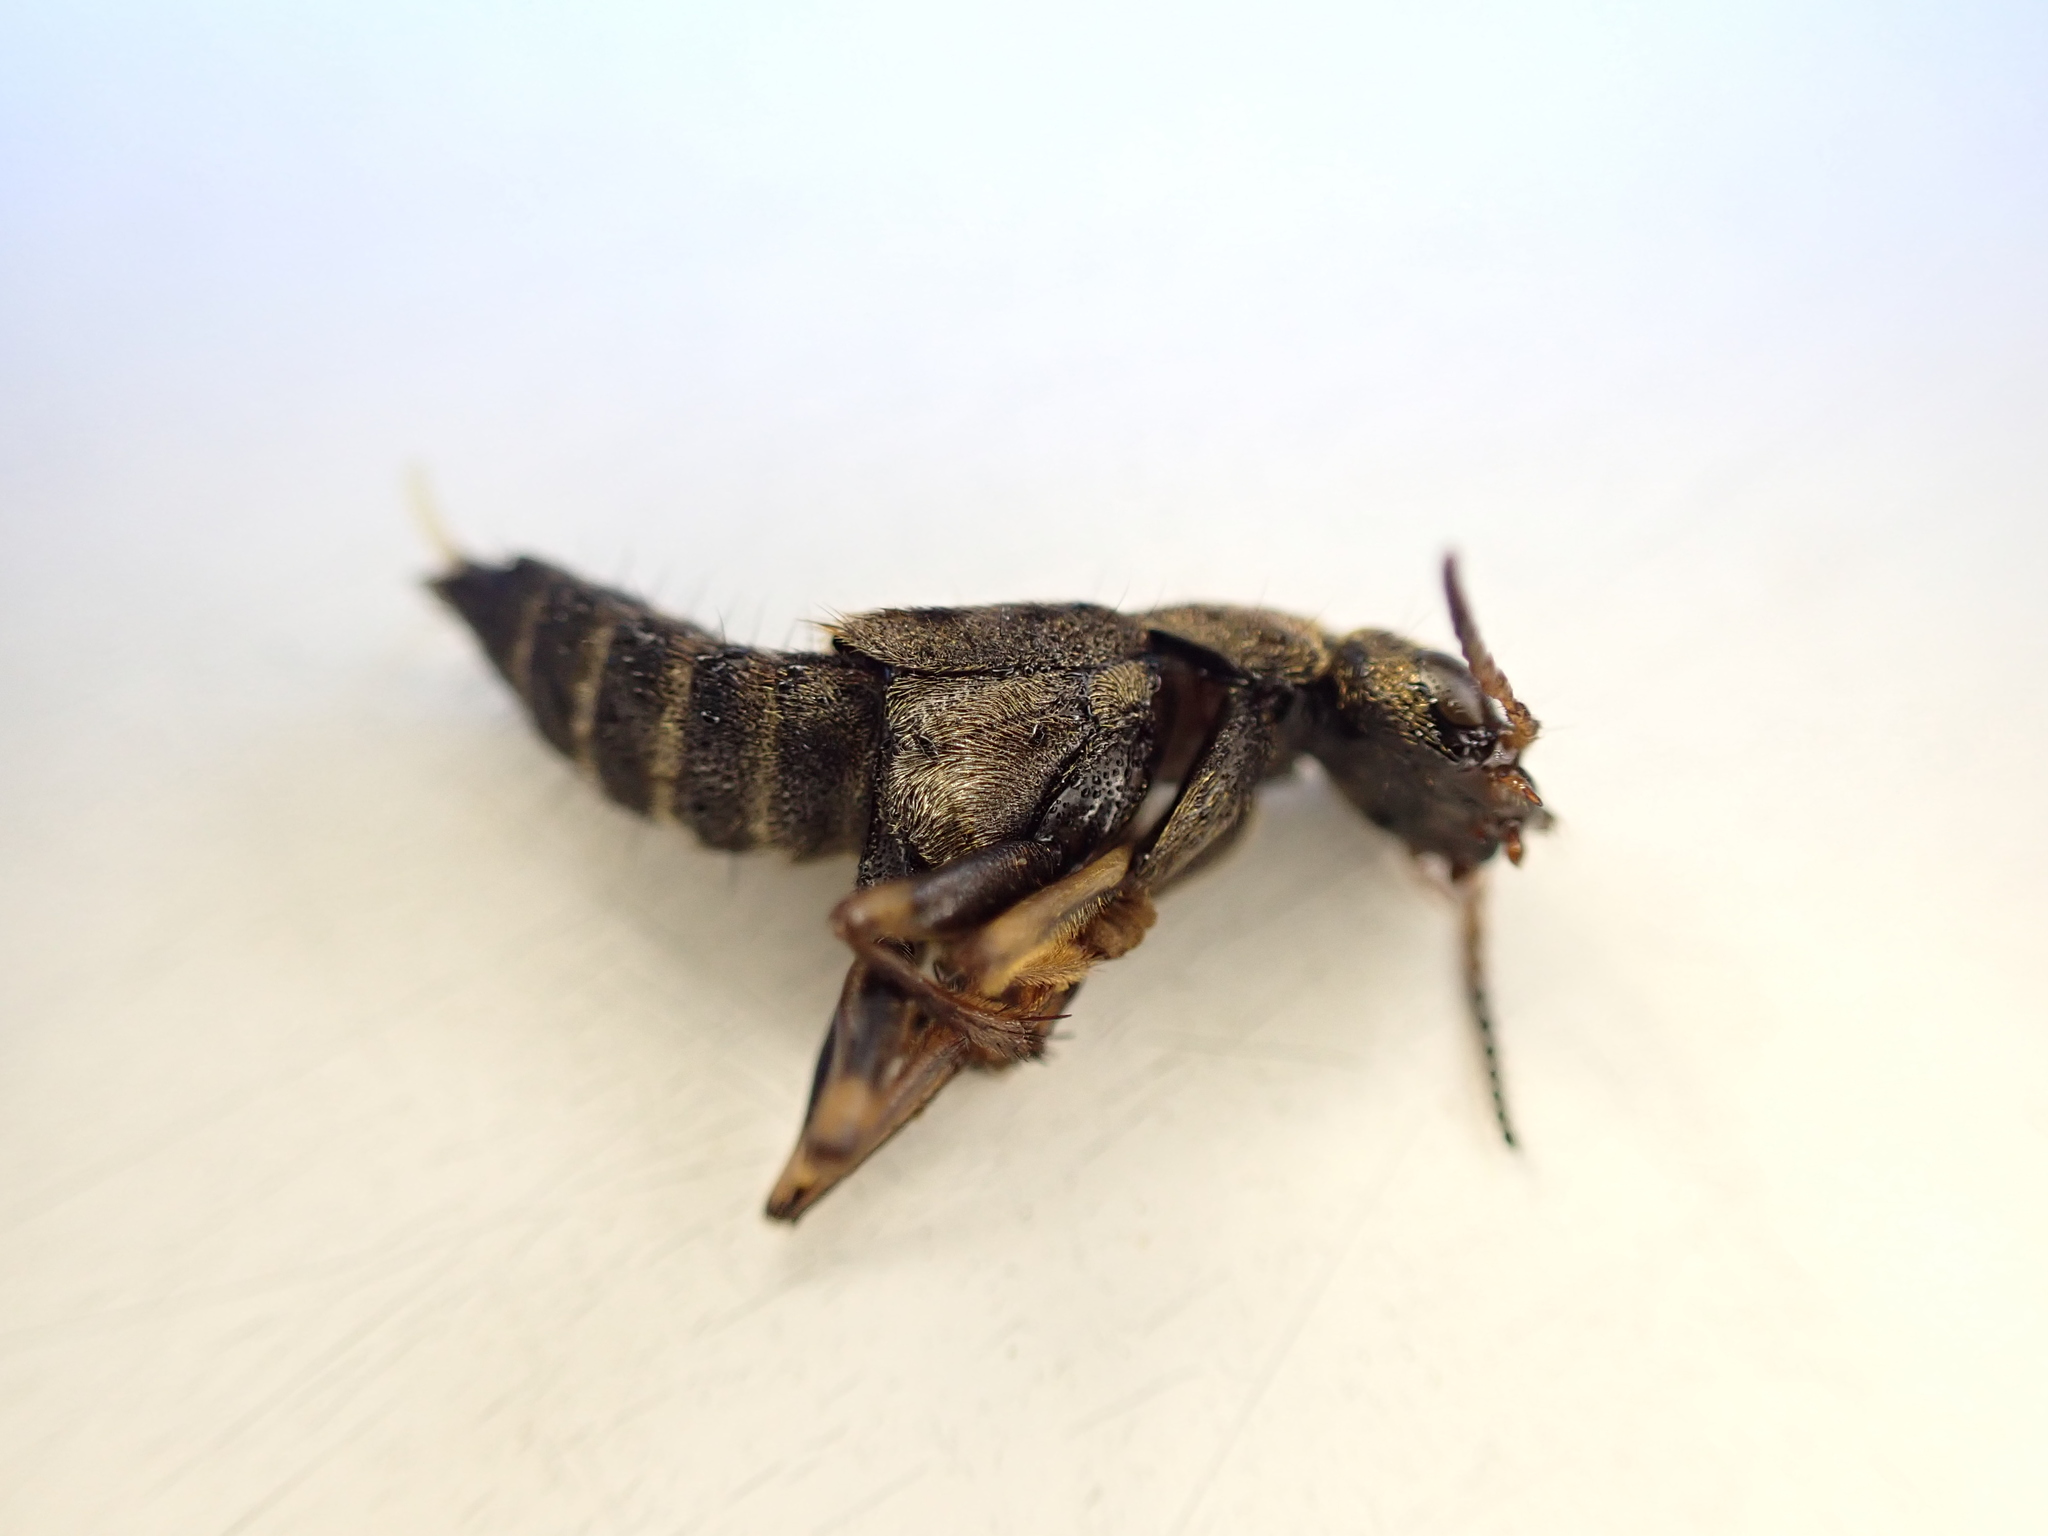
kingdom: Animalia
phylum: Arthropoda
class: Insecta
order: Coleoptera
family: Staphylinidae
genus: Ontholestes
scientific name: Ontholestes tessellatus
